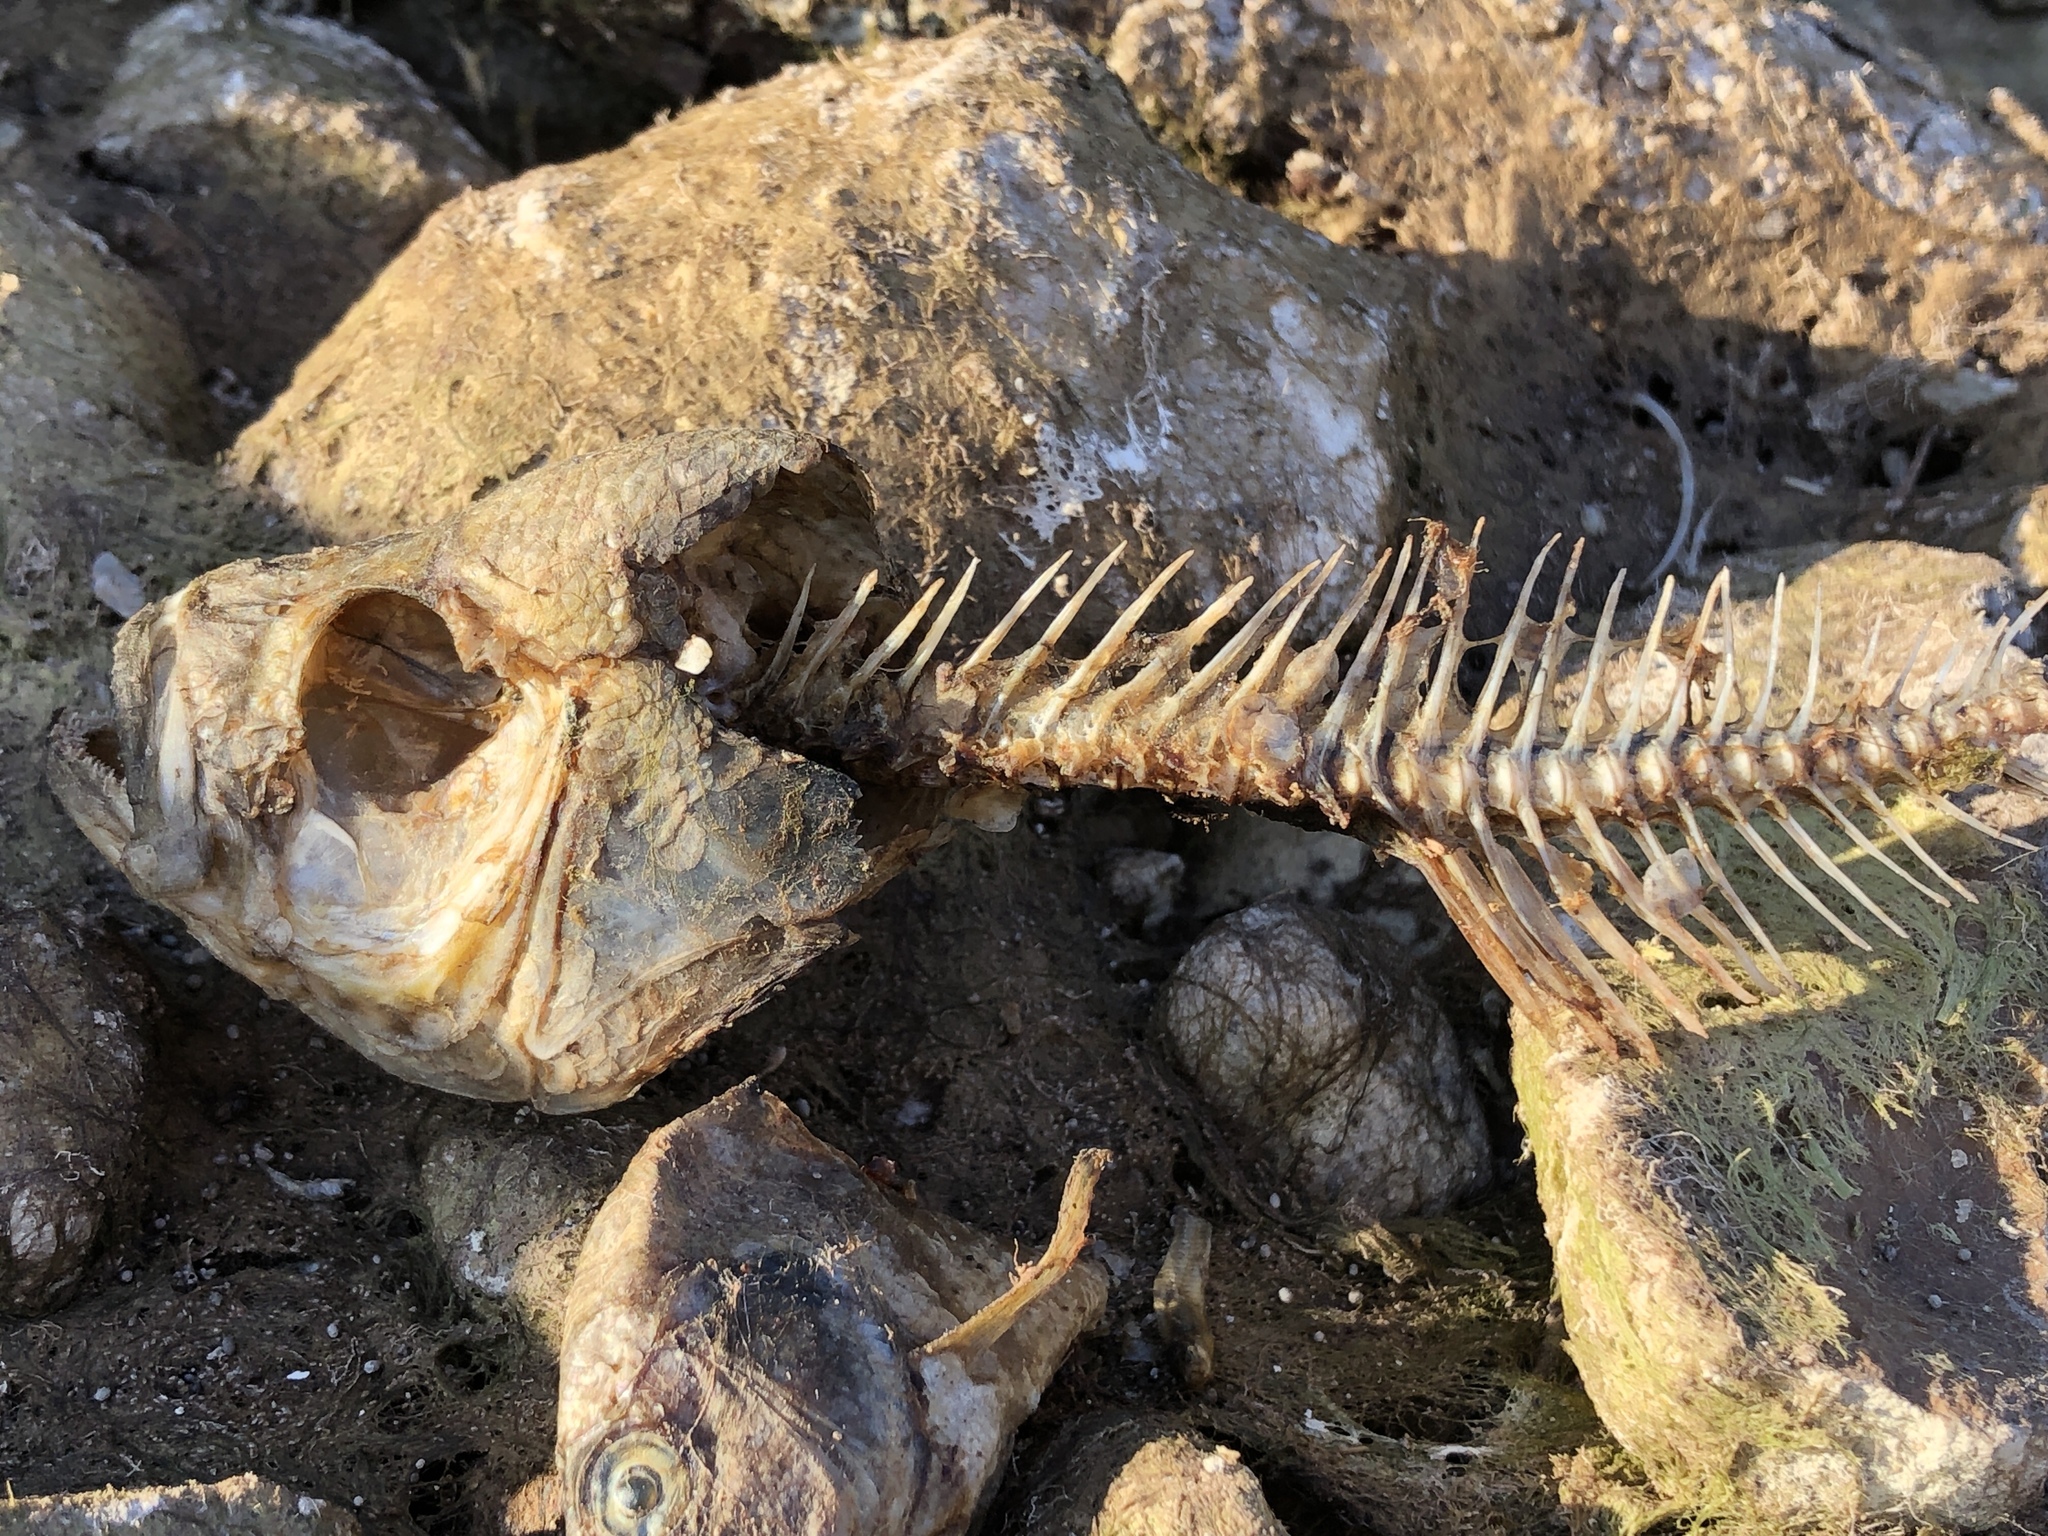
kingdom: Animalia
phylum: Chordata
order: Perciformes
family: Sciaenidae
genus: Aplodinotus
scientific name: Aplodinotus grunniens
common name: Freshwater drum
